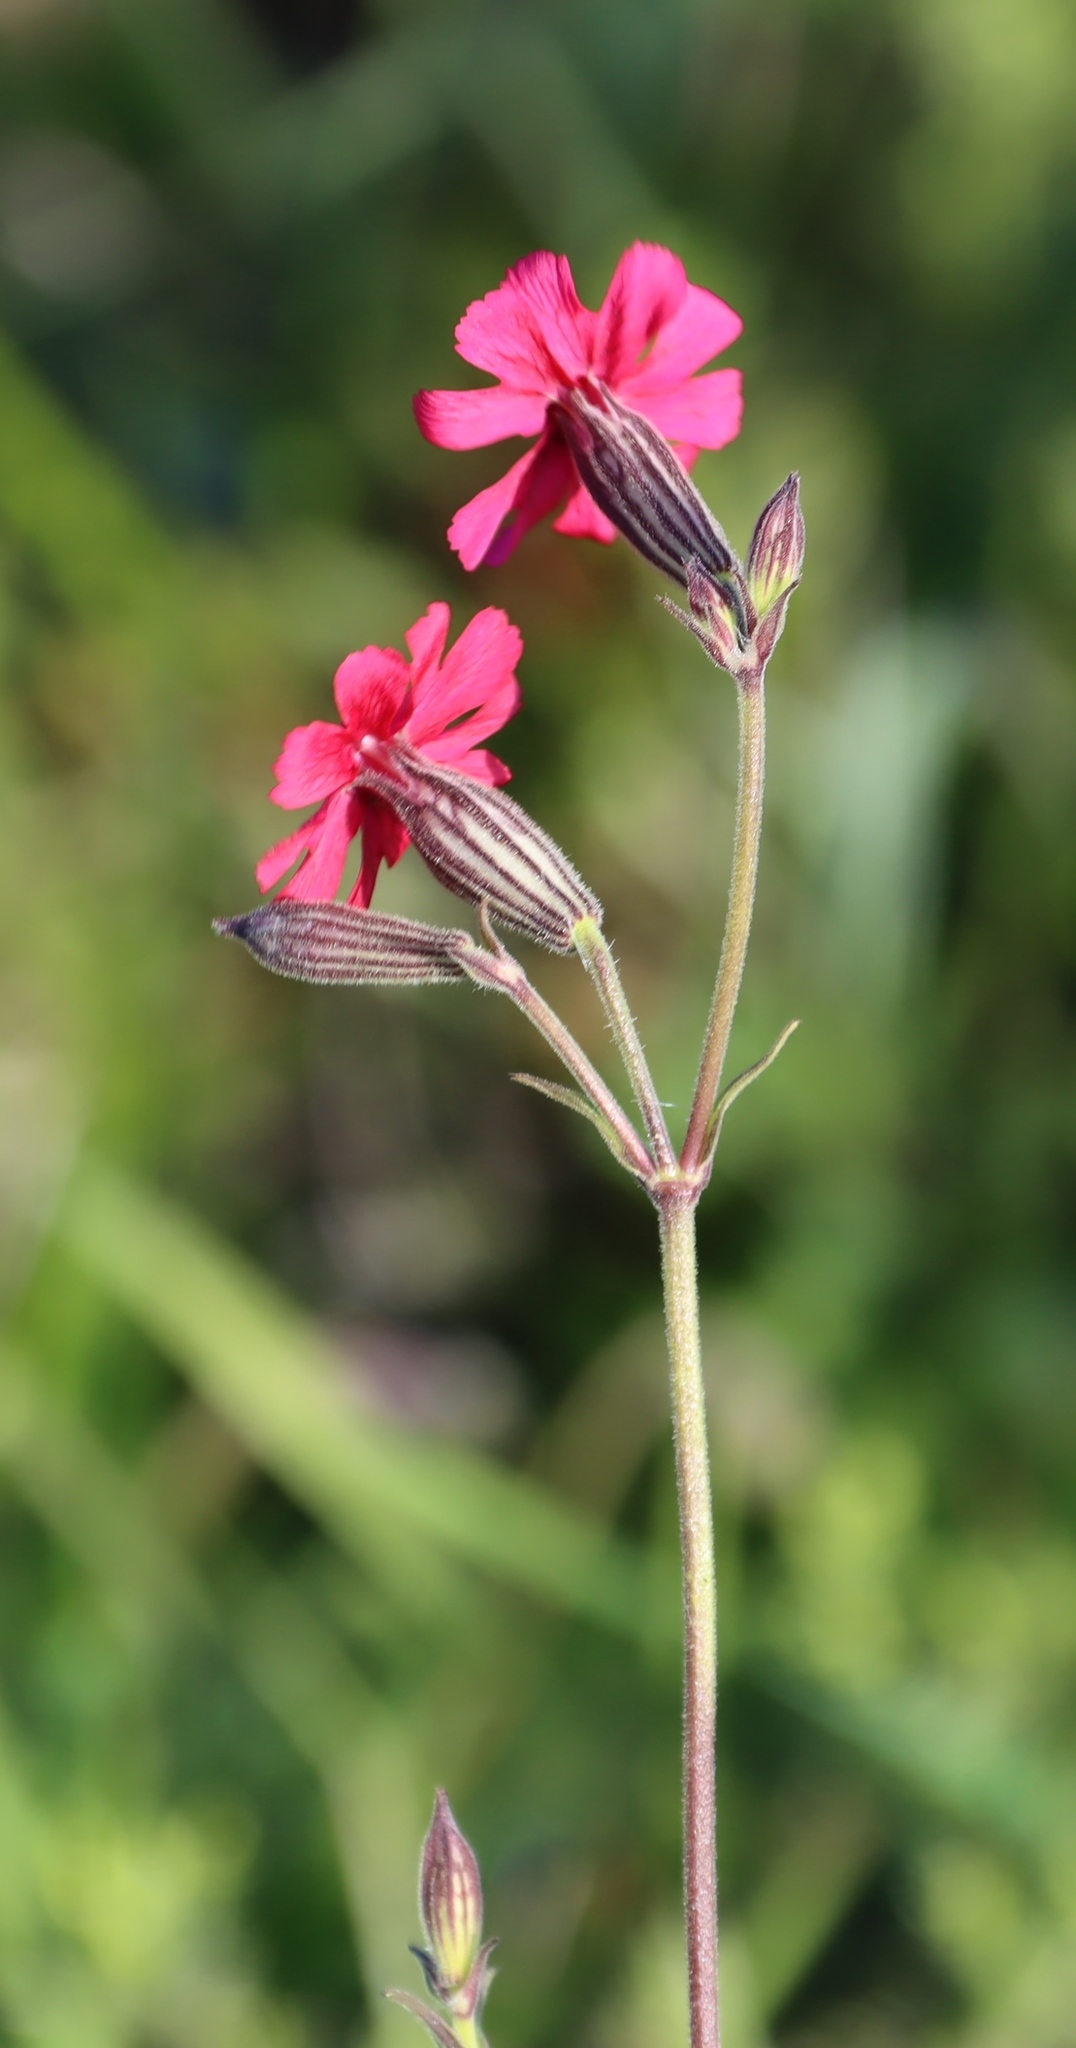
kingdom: Plantae
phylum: Tracheophyta
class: Magnoliopsida
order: Caryophyllales
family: Caryophyllaceae
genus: Silene
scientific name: Silene ornata
